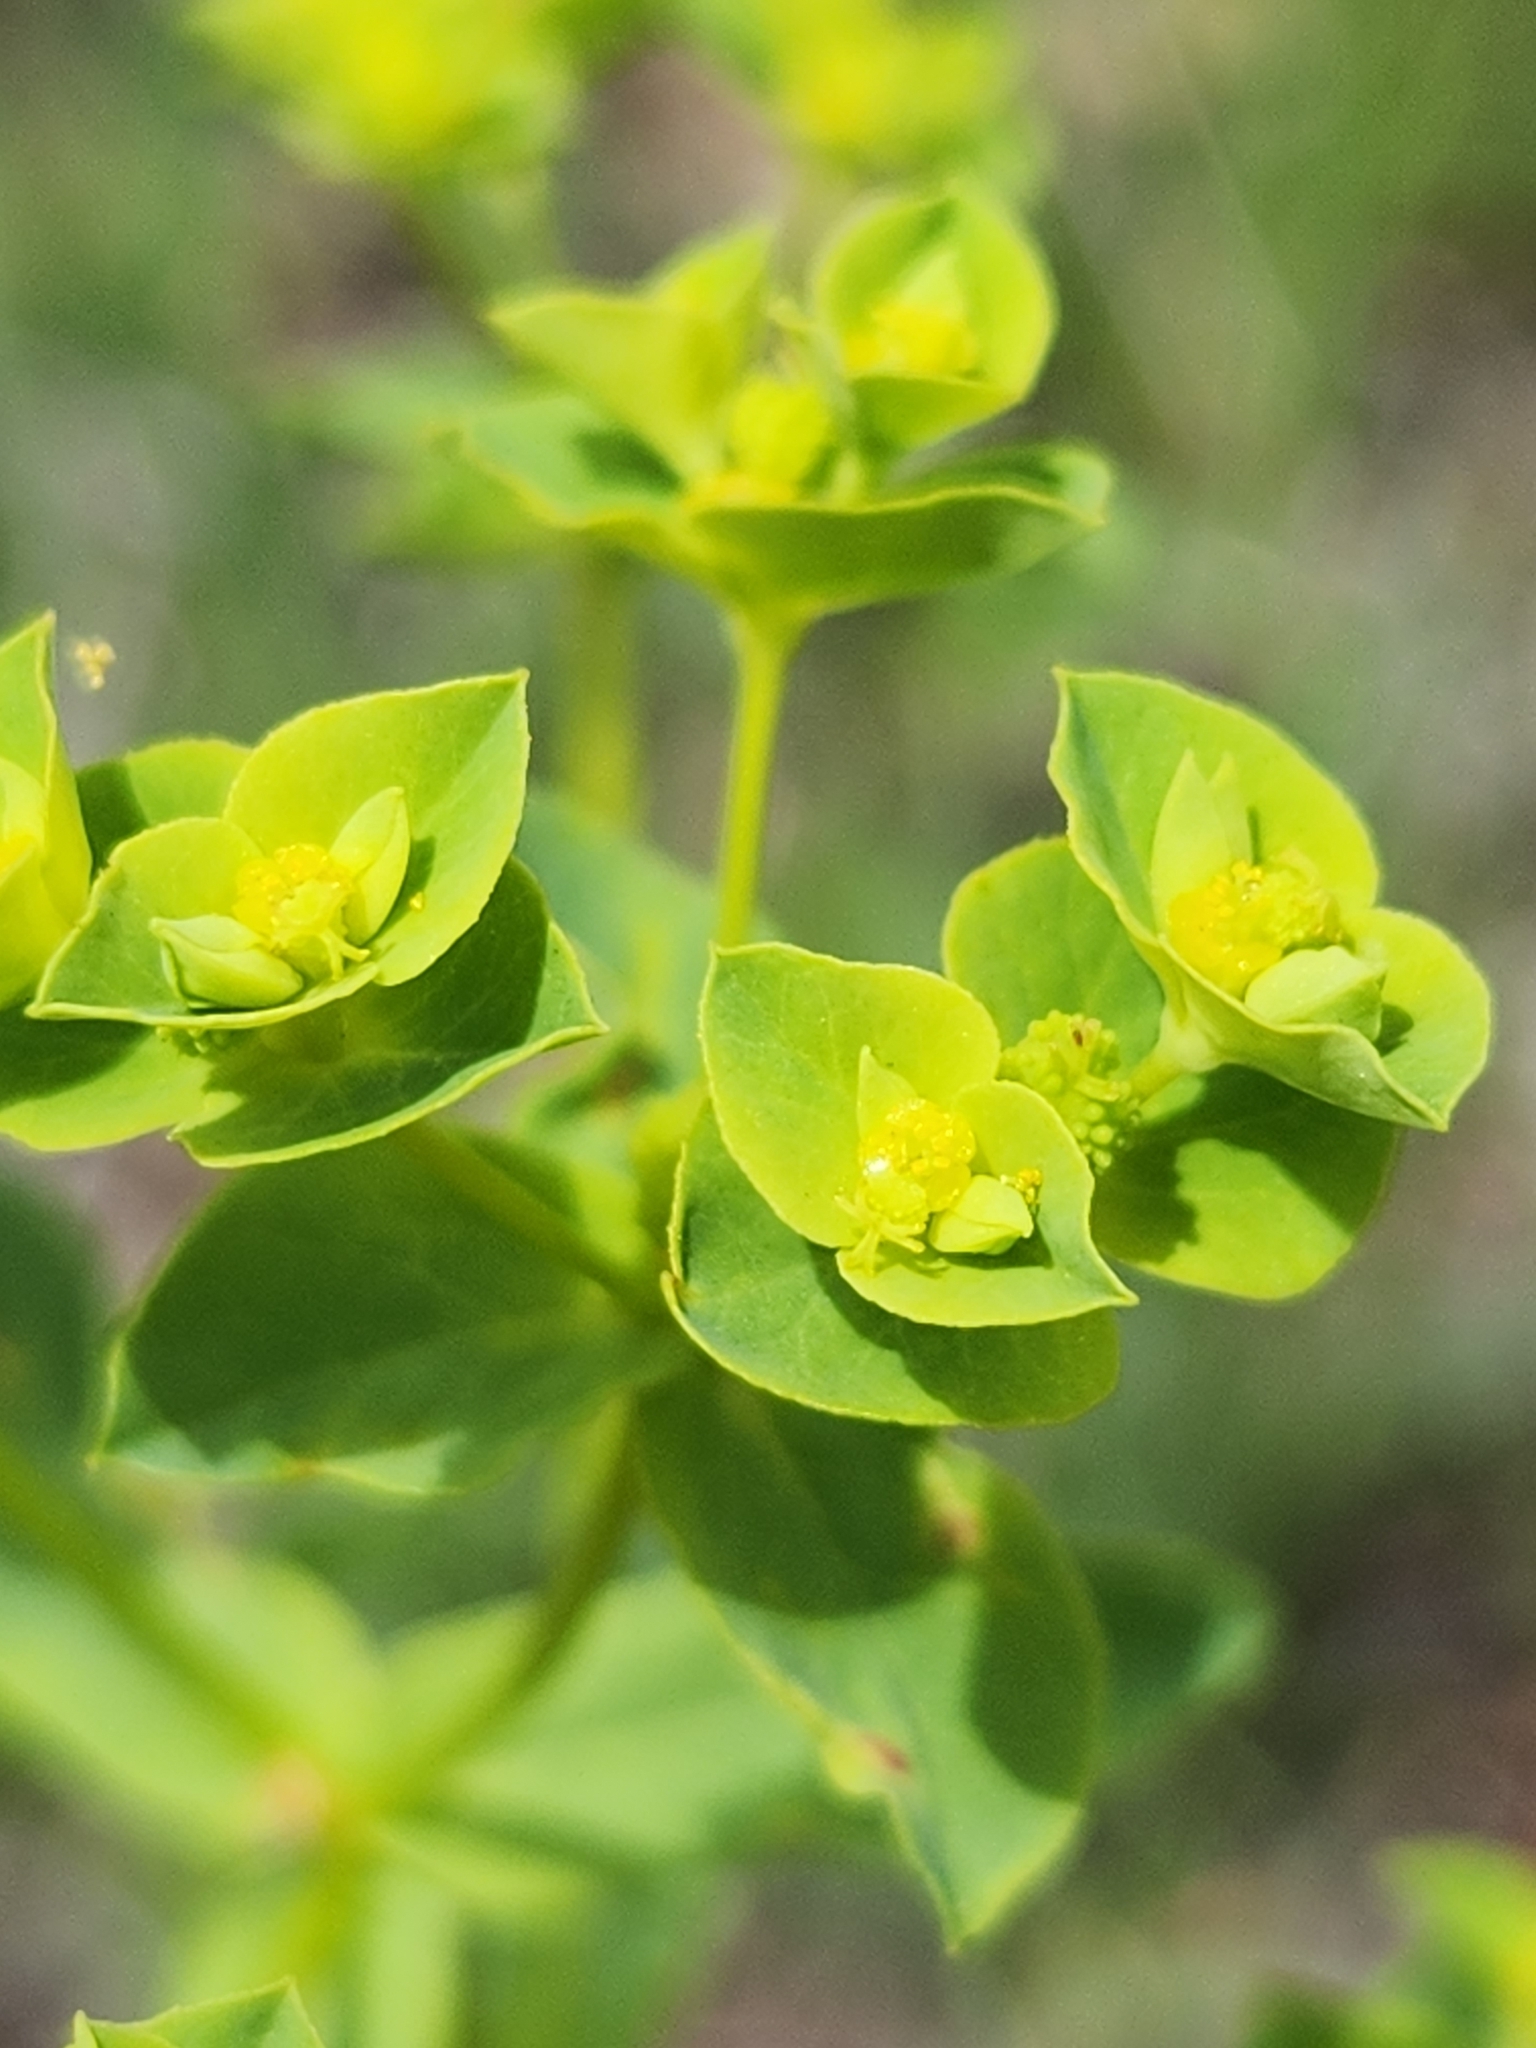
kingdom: Plantae
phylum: Tracheophyta
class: Magnoliopsida
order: Malpighiales
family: Euphorbiaceae
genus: Euphorbia
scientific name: Euphorbia spathulata
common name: Blunt spurge
